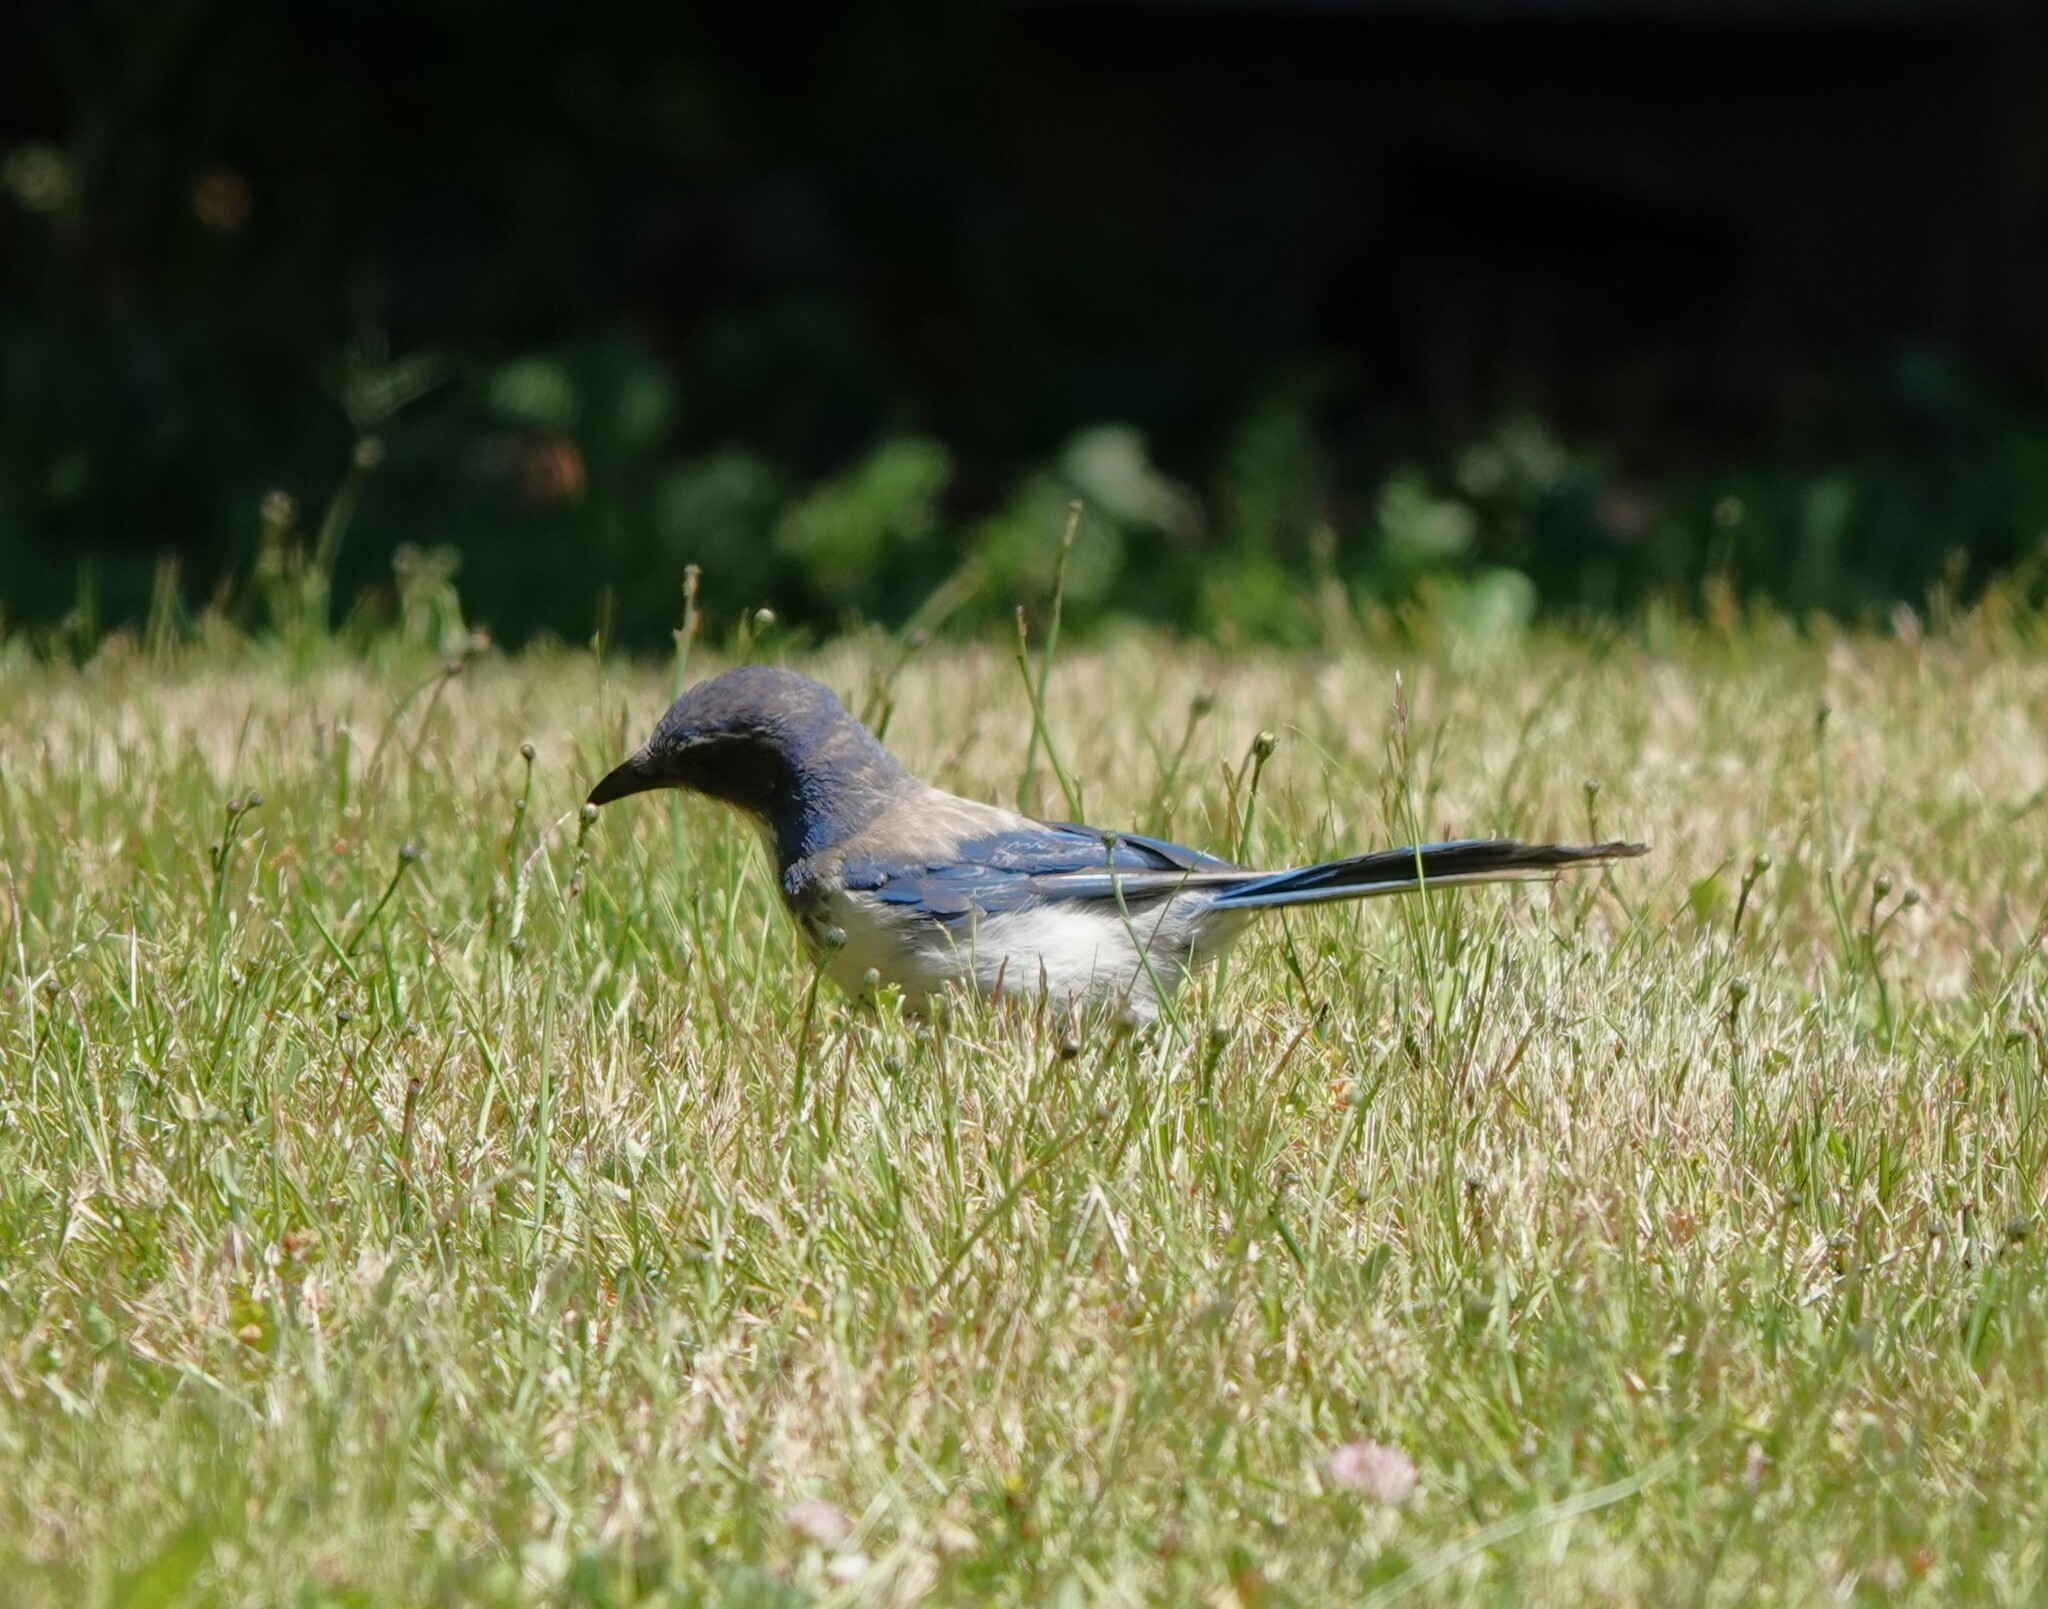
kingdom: Animalia
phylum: Chordata
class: Aves
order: Passeriformes
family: Corvidae
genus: Aphelocoma
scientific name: Aphelocoma californica
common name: California scrub-jay
